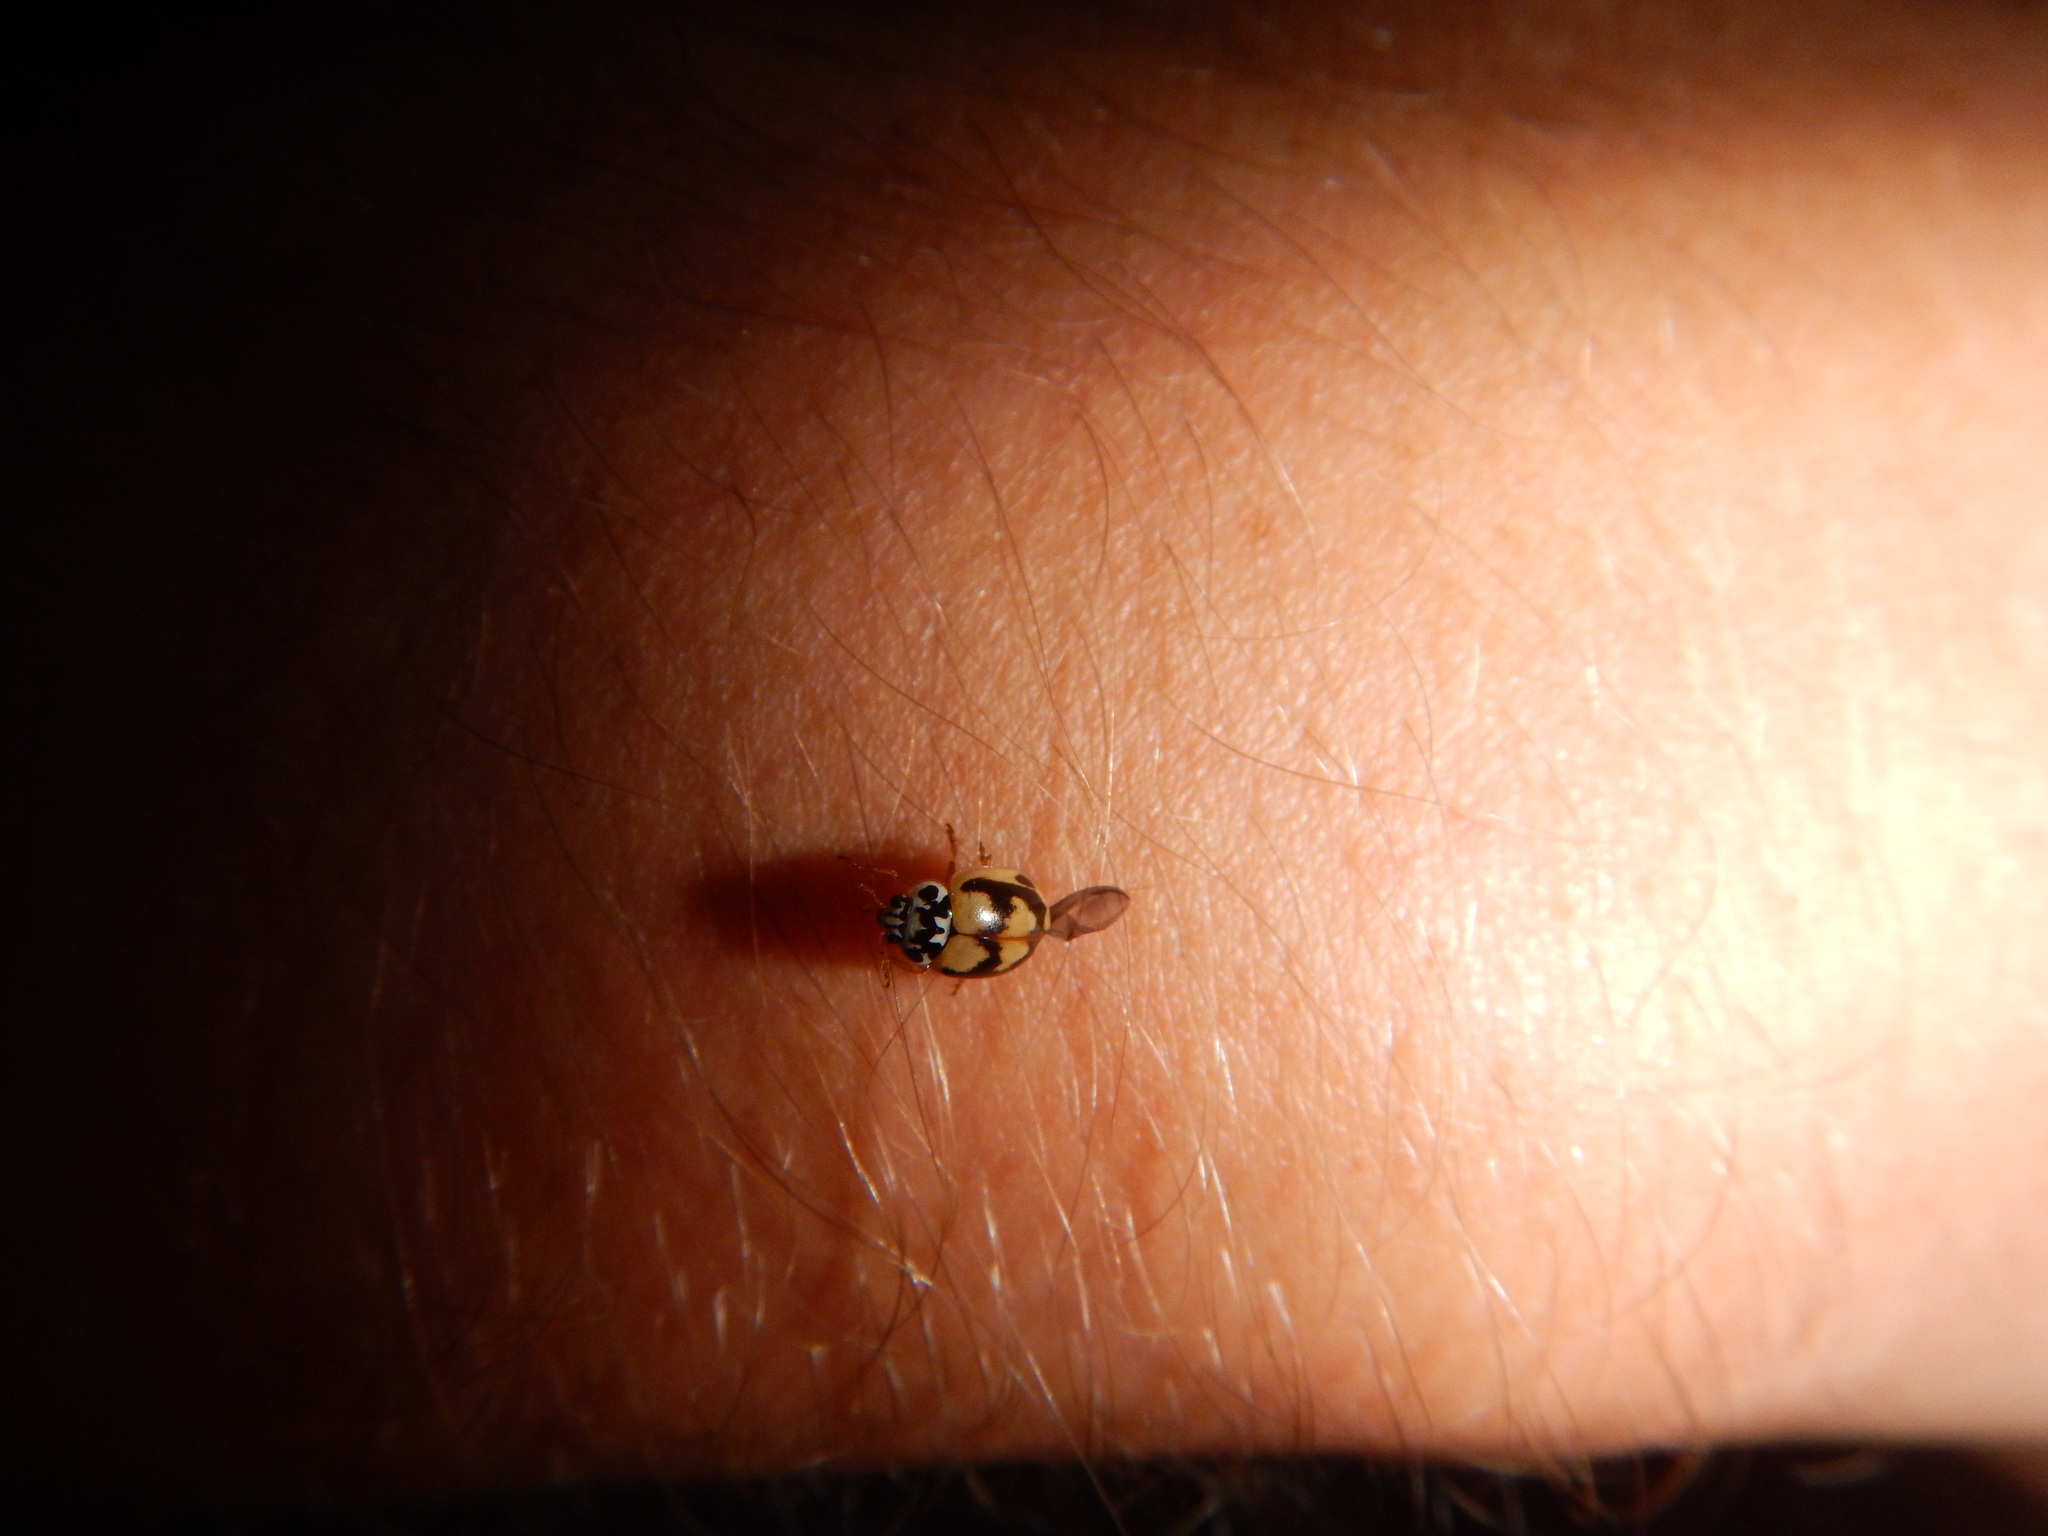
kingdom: Animalia
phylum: Arthropoda
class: Insecta
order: Coleoptera
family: Coccinellidae
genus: Mulsantina
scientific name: Mulsantina picta
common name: Painted ladybird
